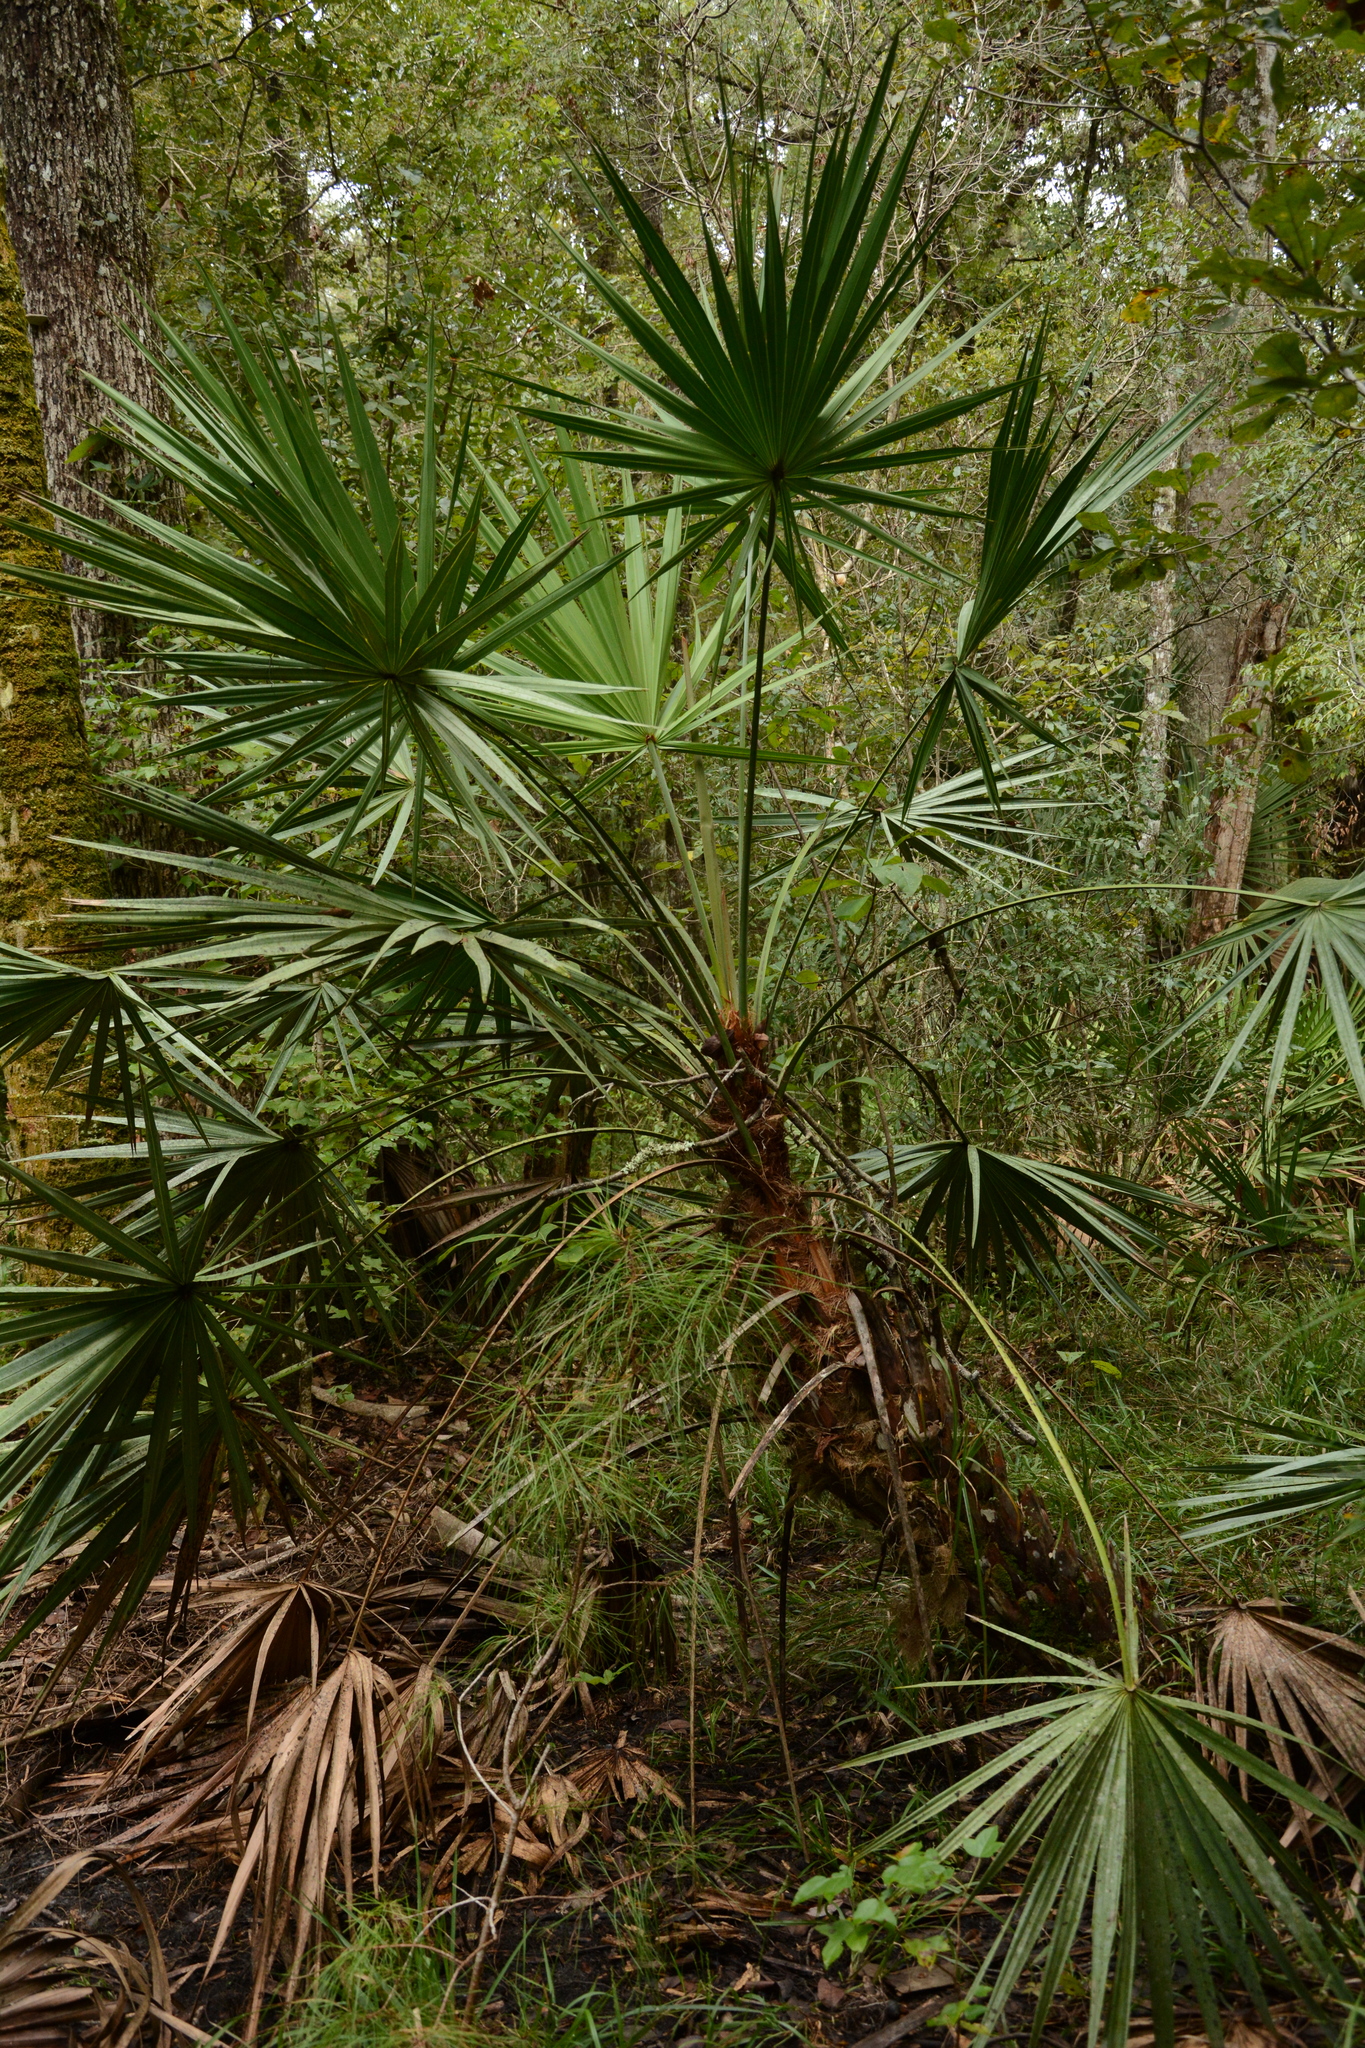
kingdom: Plantae
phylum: Tracheophyta
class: Liliopsida
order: Arecales
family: Arecaceae
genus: Serenoa
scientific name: Serenoa repens
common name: Saw-palmetto
